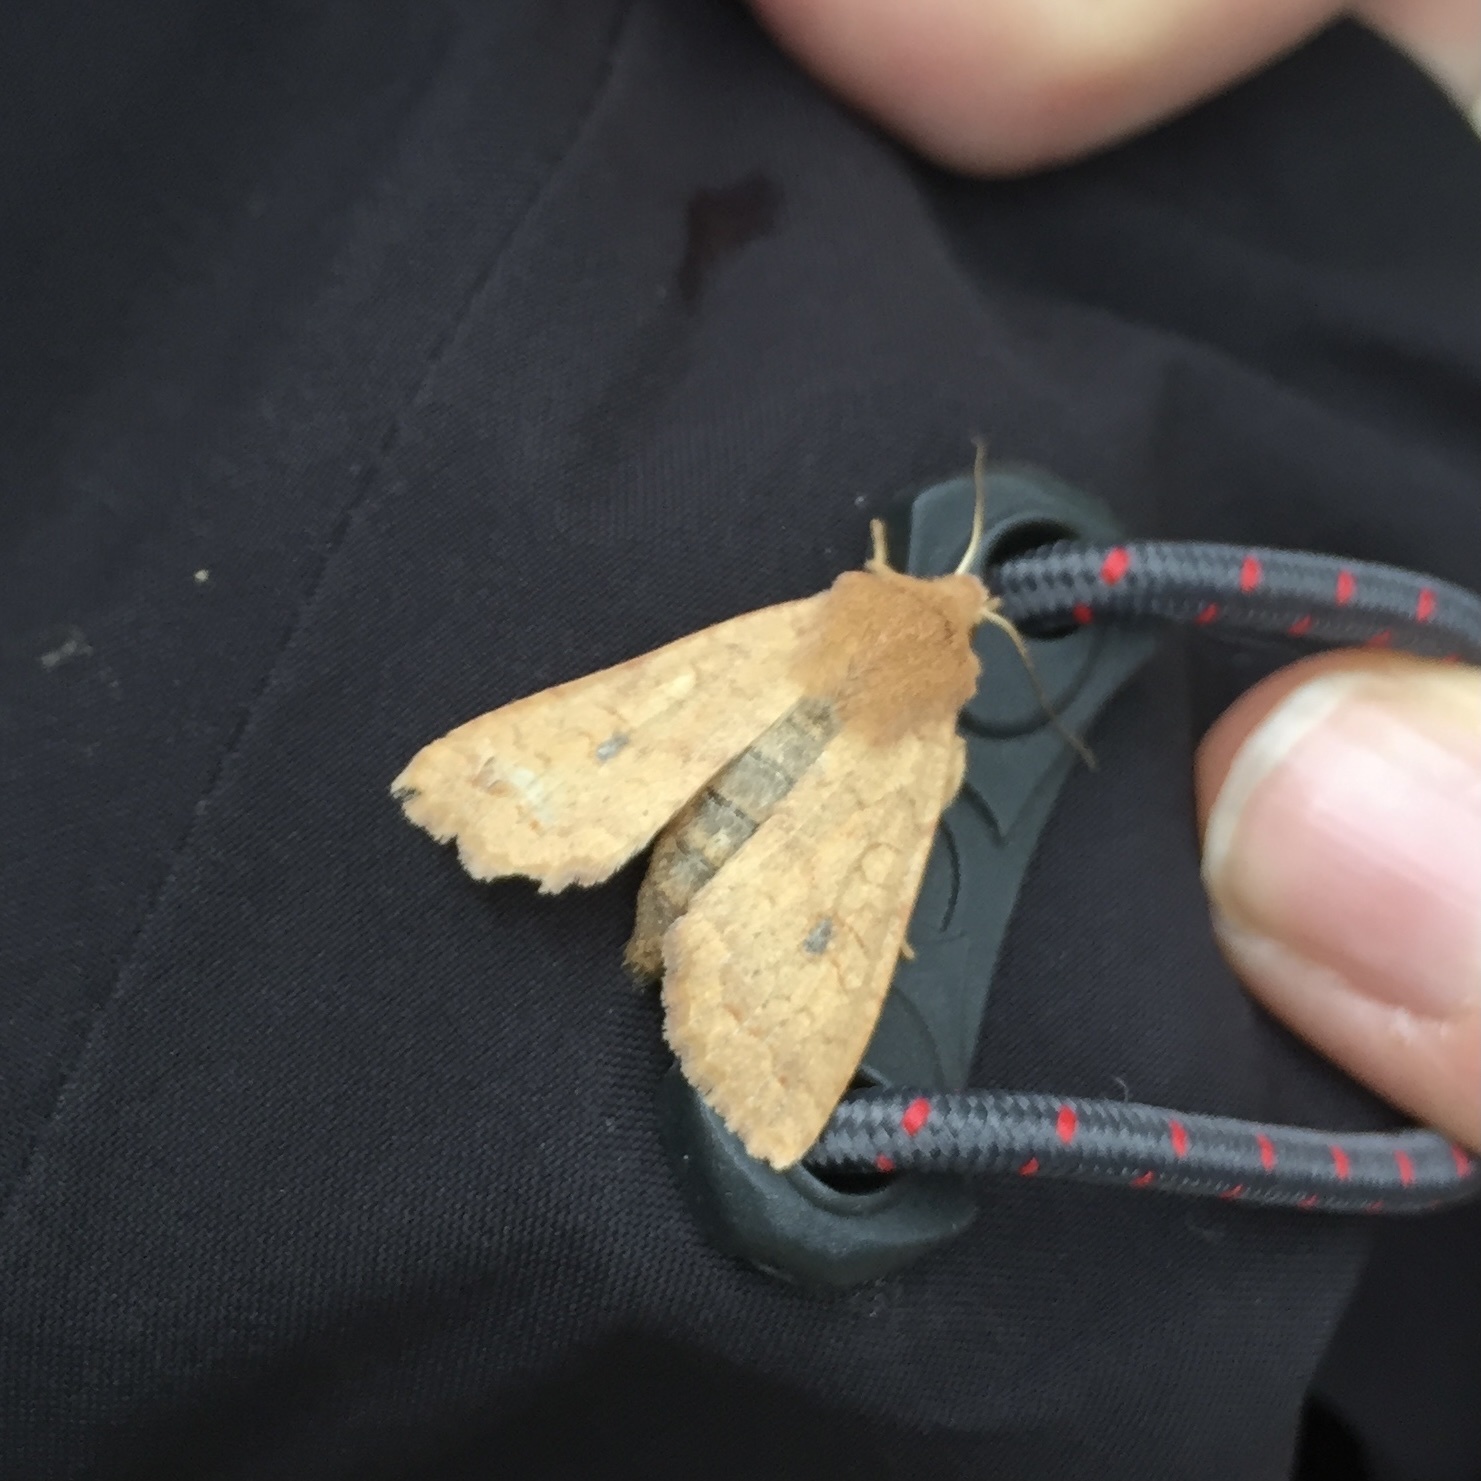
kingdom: Animalia
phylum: Arthropoda
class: Insecta
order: Lepidoptera
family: Noctuidae
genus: Sunira
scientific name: Sunira circellaris
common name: Brick
